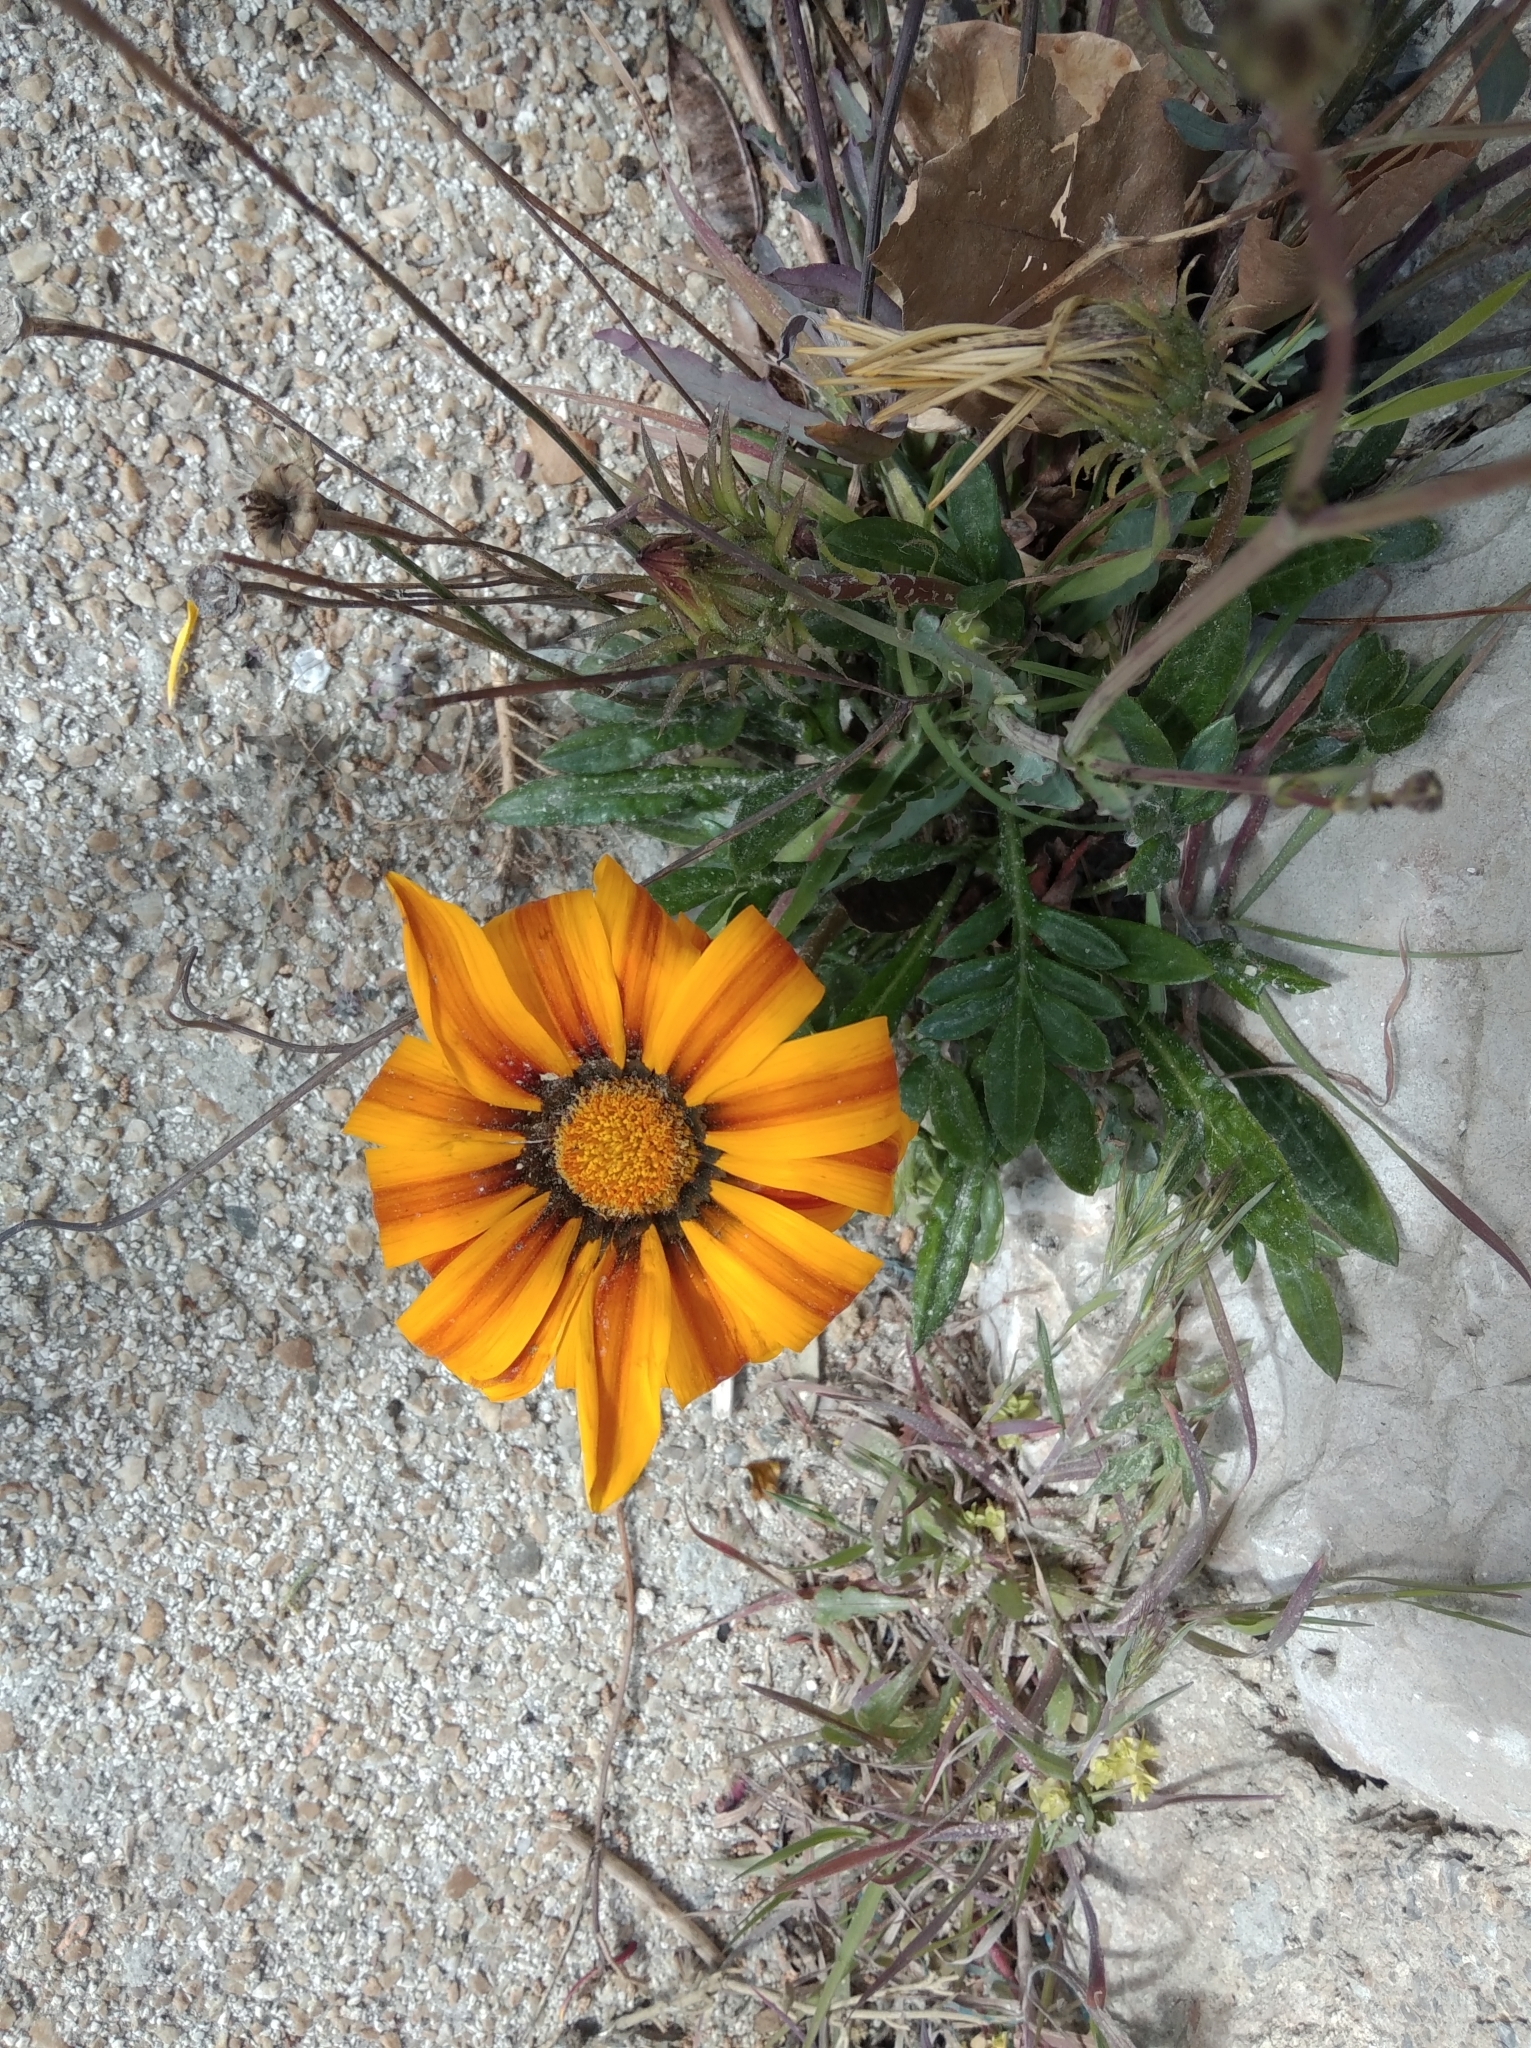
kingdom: Plantae
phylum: Tracheophyta
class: Magnoliopsida
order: Asterales
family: Asteraceae
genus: Gazania
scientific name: Gazania splendens
